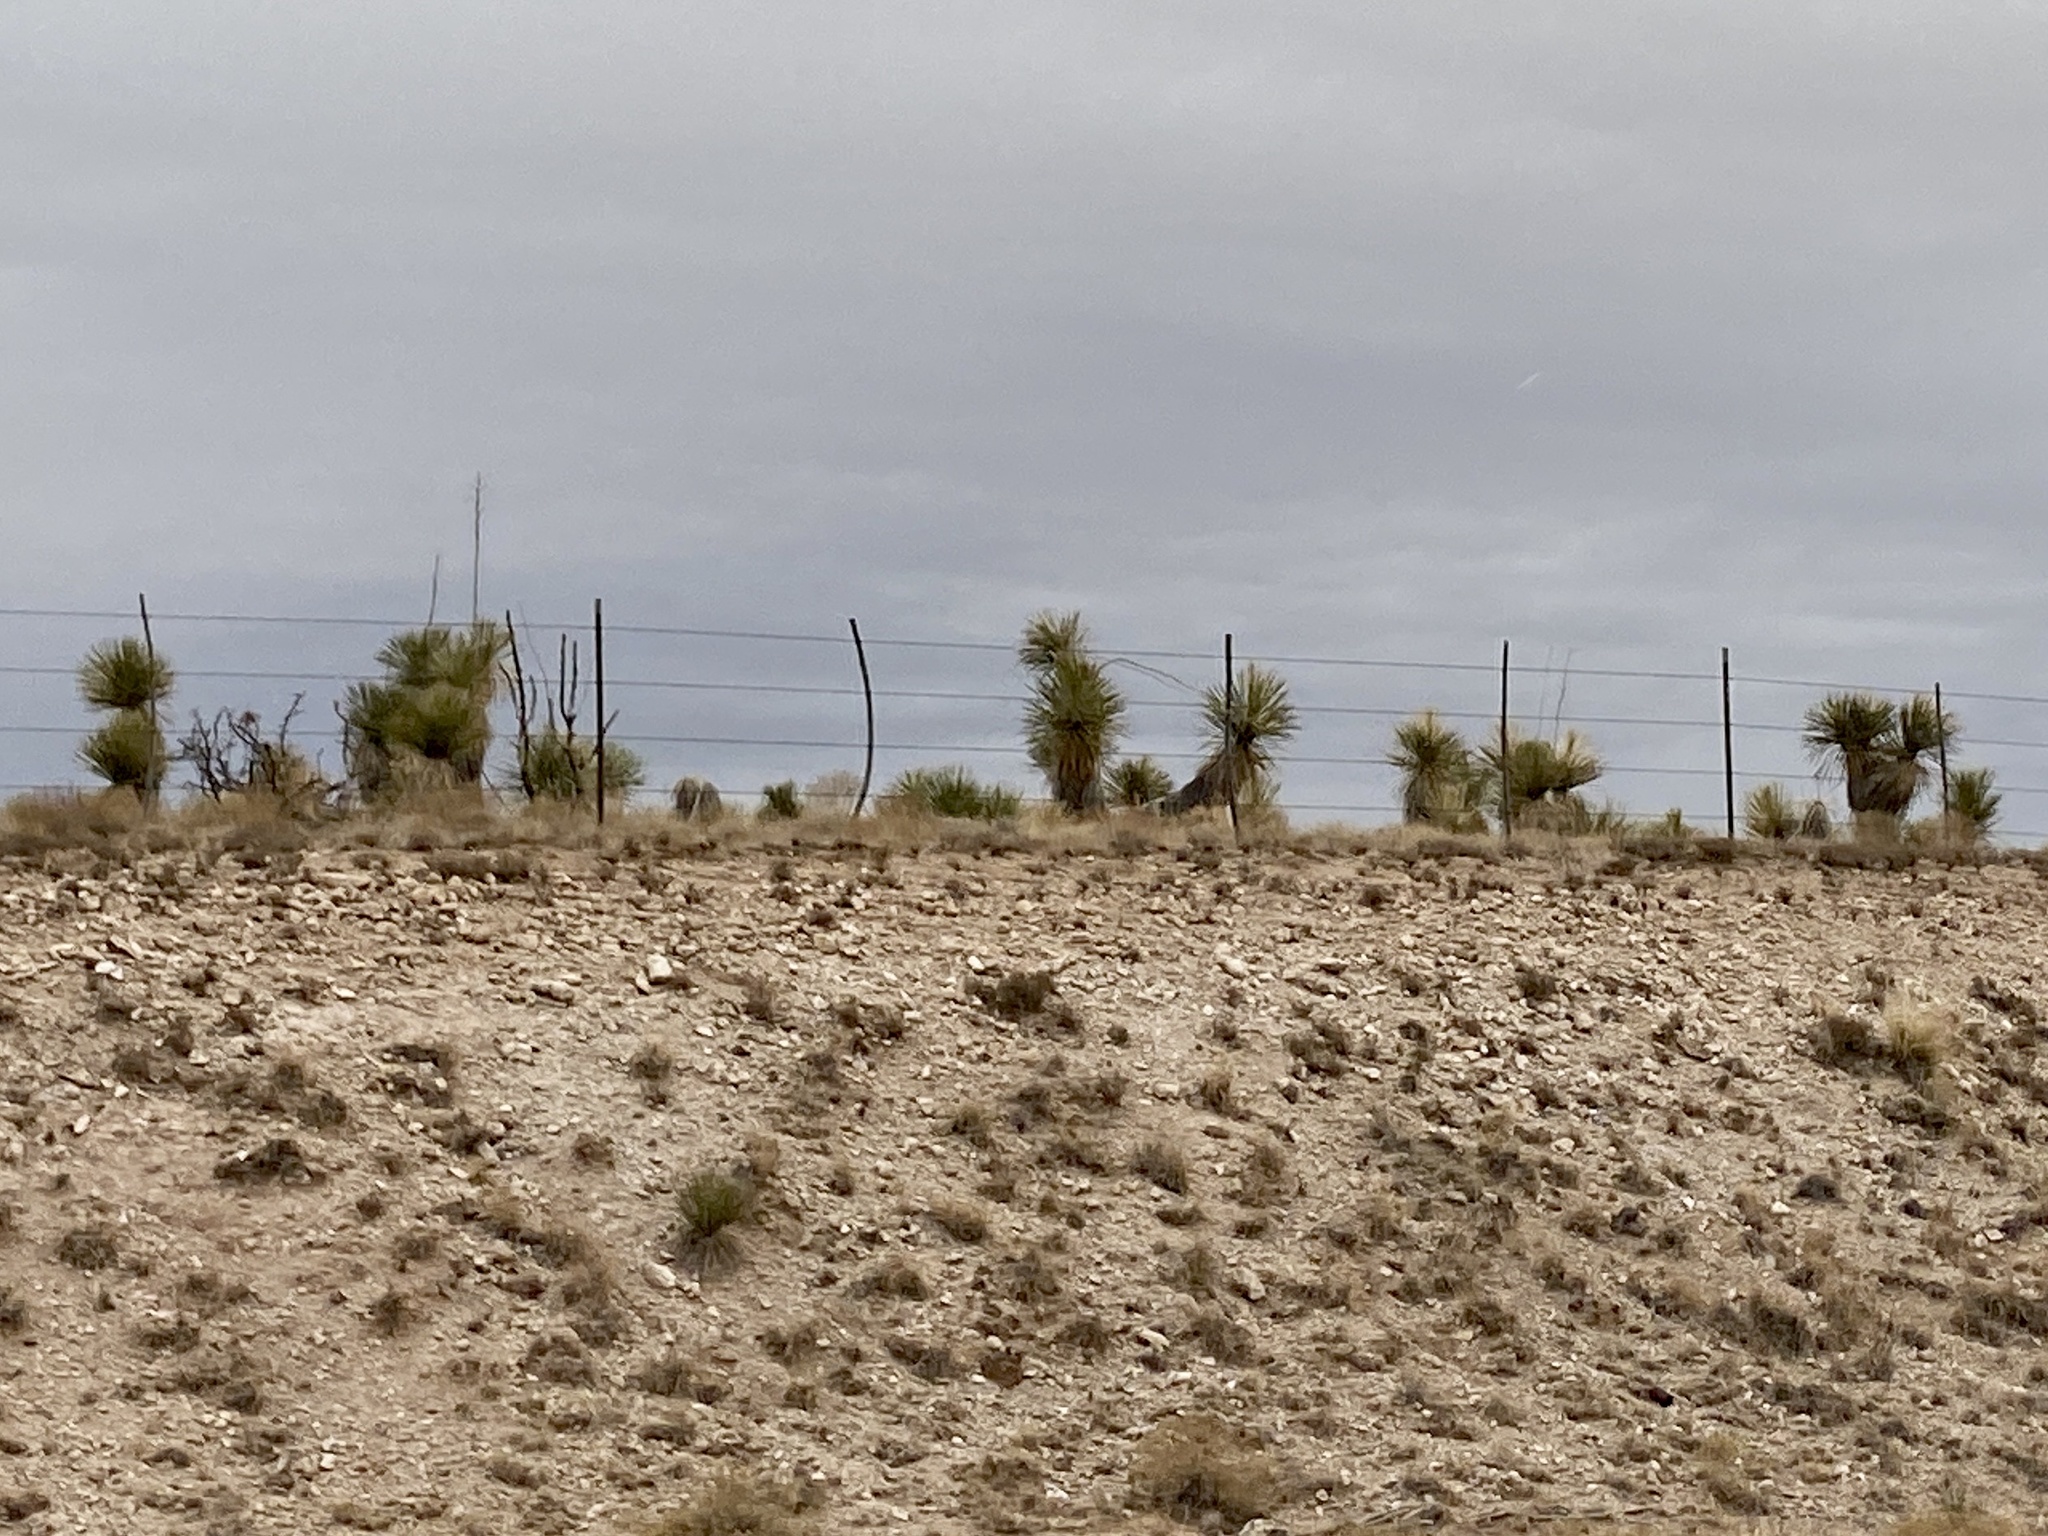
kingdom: Plantae
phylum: Tracheophyta
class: Liliopsida
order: Asparagales
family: Asparagaceae
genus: Yucca
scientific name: Yucca elata
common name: Palmella
